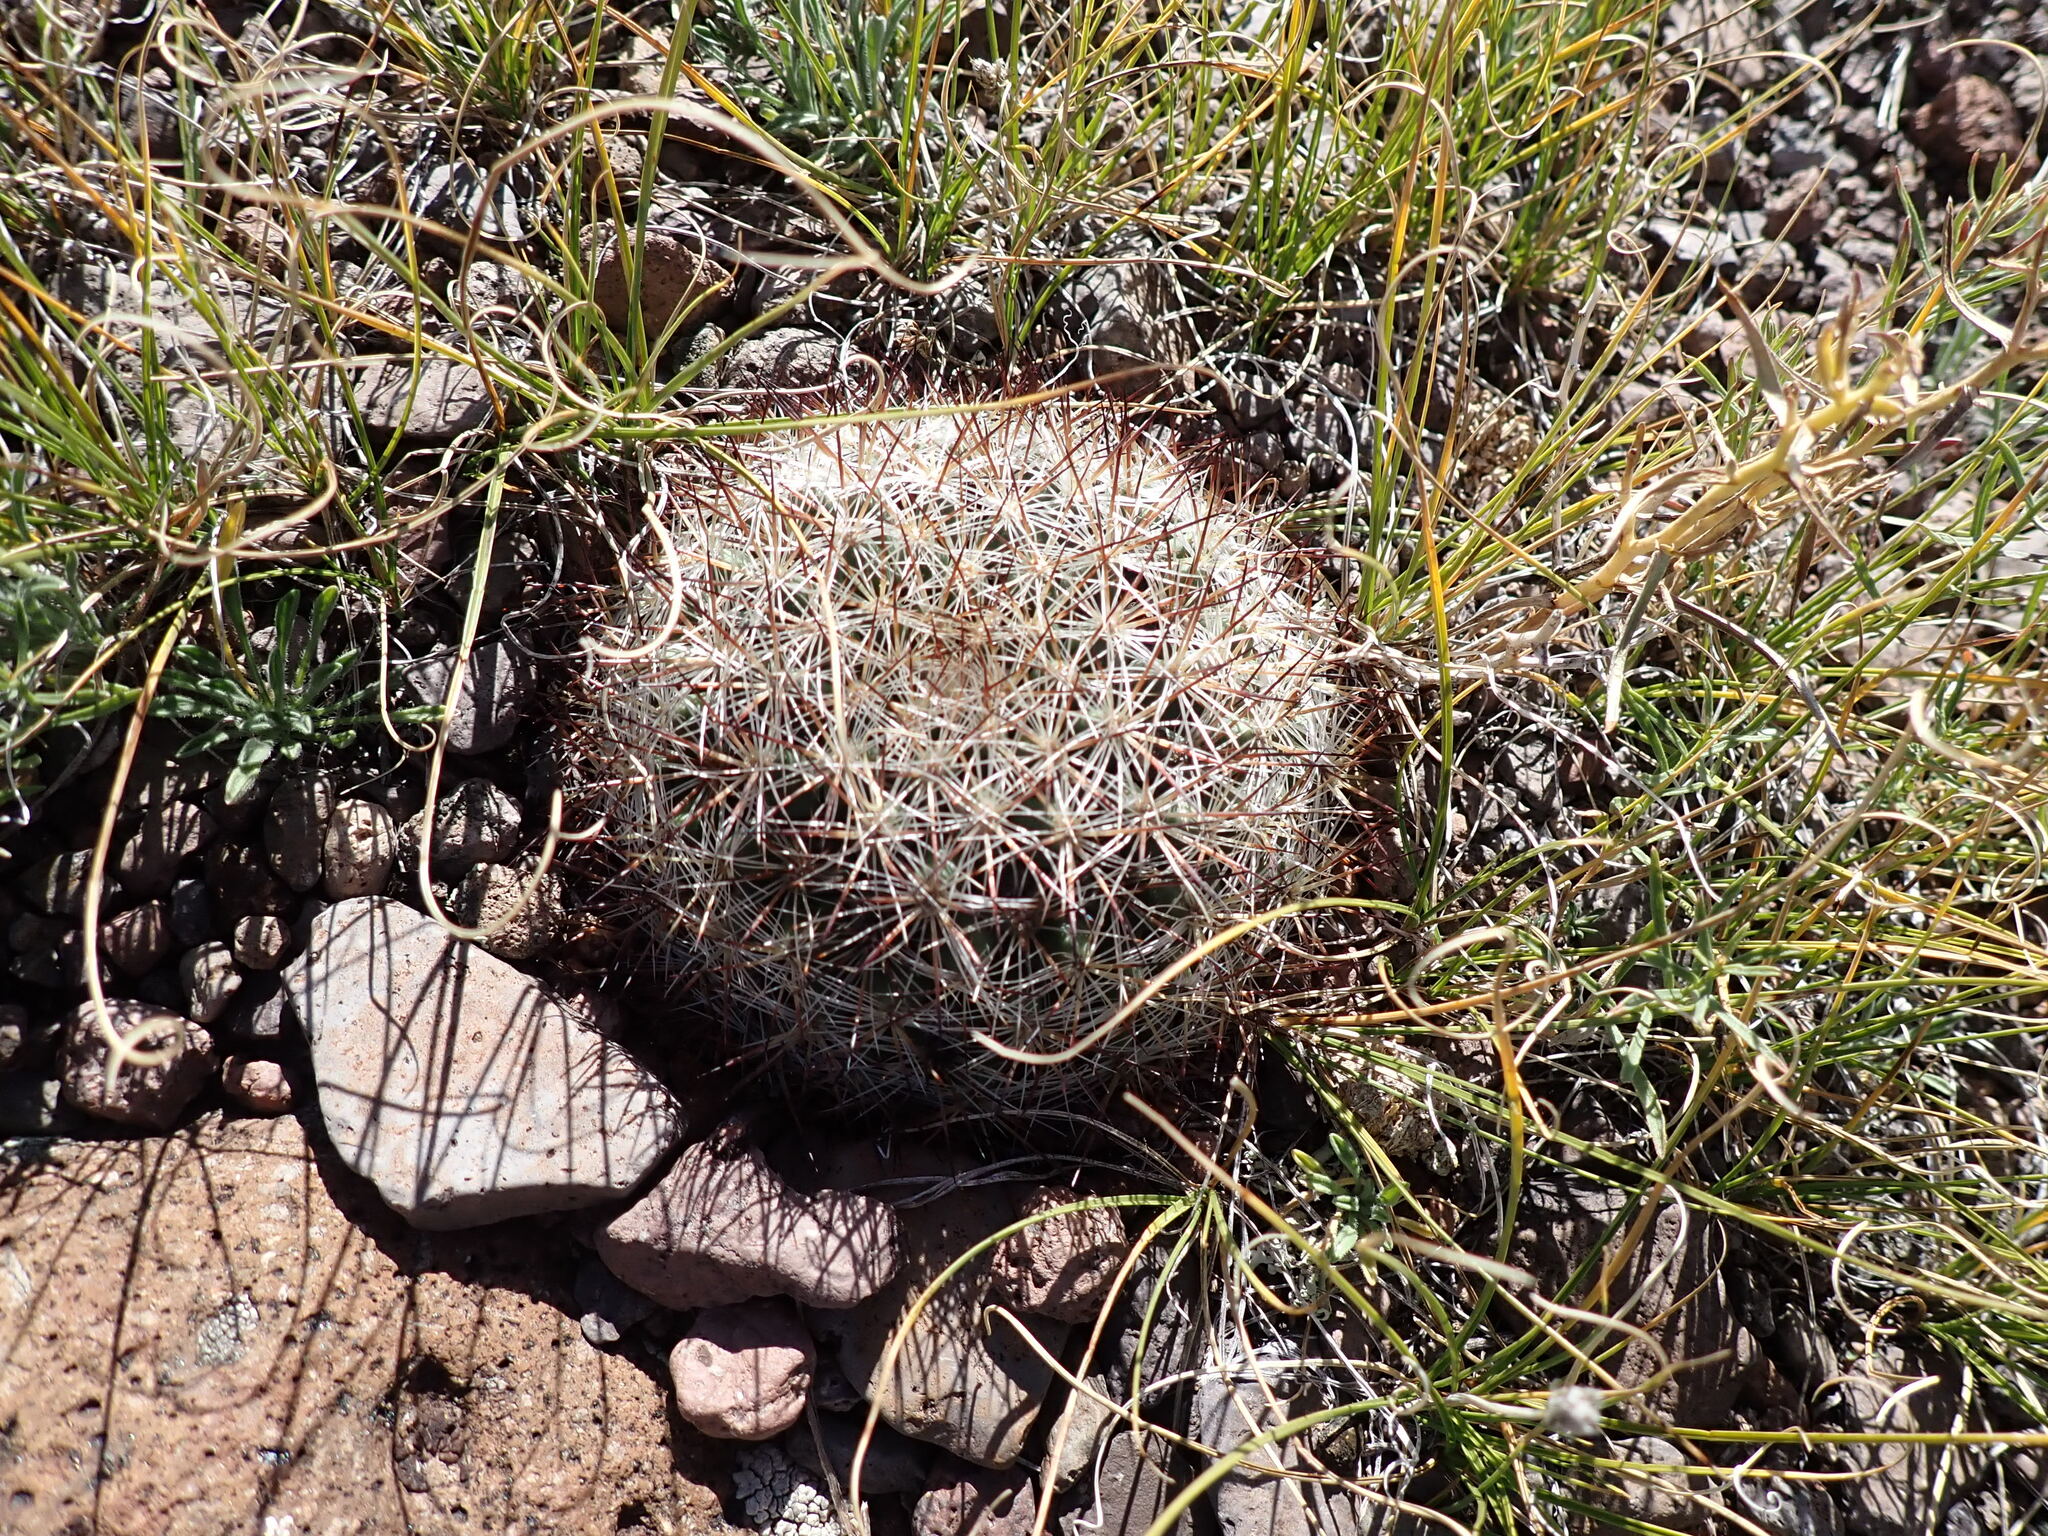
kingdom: Plantae
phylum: Tracheophyta
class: Magnoliopsida
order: Caryophyllales
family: Cactaceae
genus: Pediocactus
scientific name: Pediocactus simpsonii
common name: Simpson's hedgehog cactus
